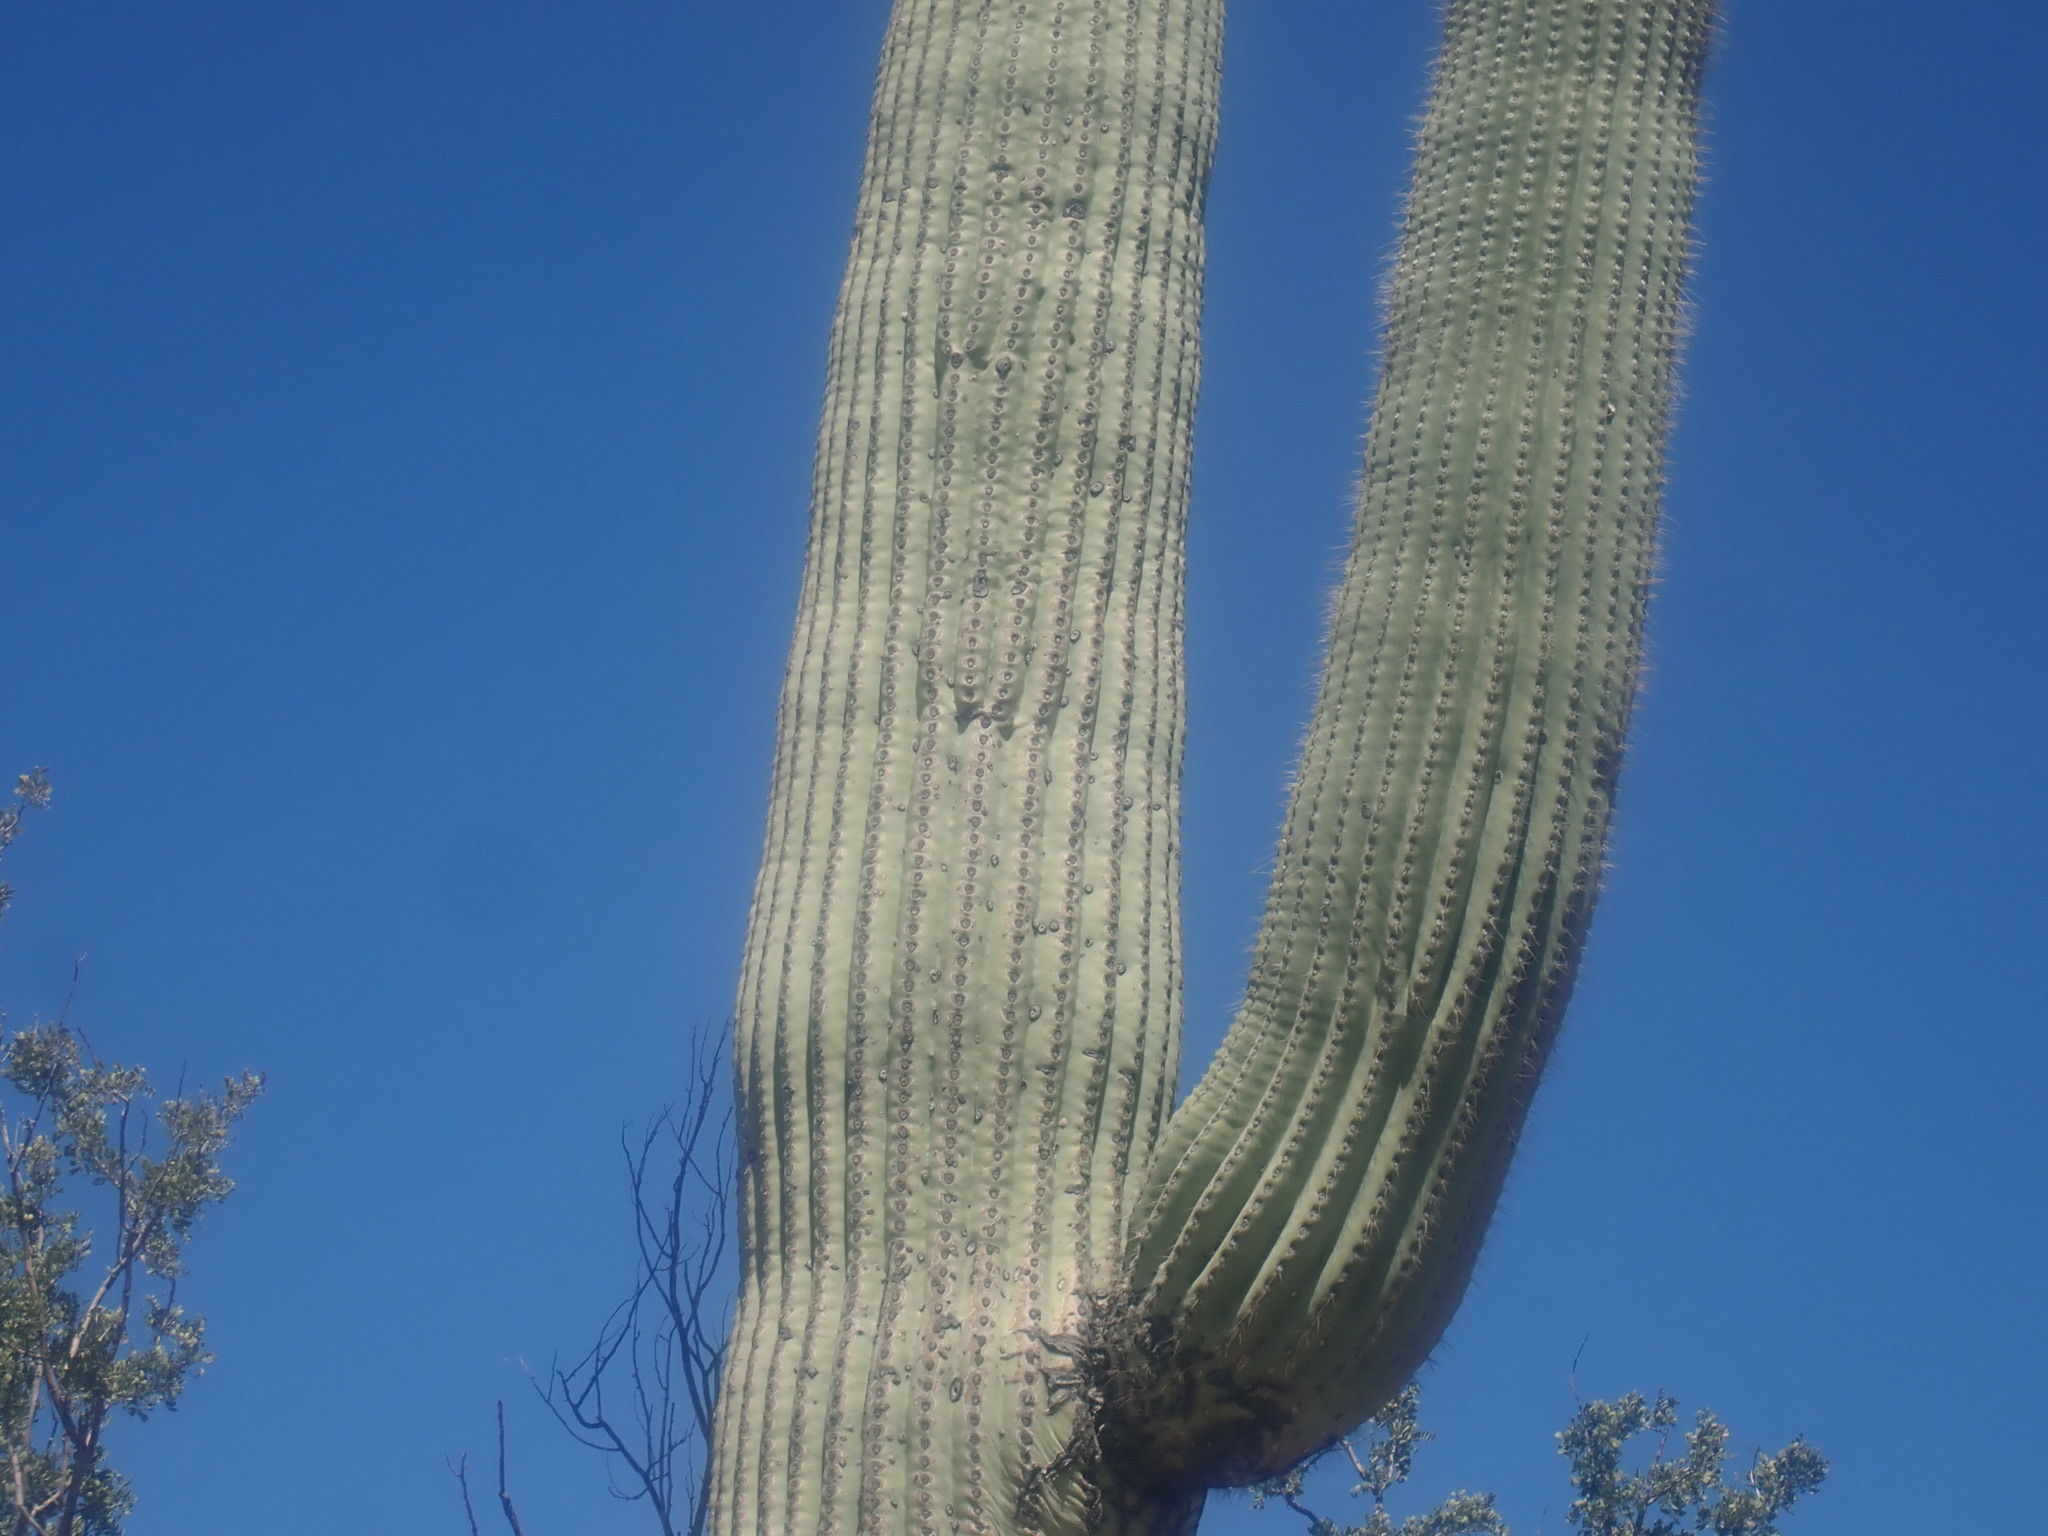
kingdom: Plantae
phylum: Tracheophyta
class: Magnoliopsida
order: Caryophyllales
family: Cactaceae
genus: Carnegiea
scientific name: Carnegiea gigantea
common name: Saguaro
